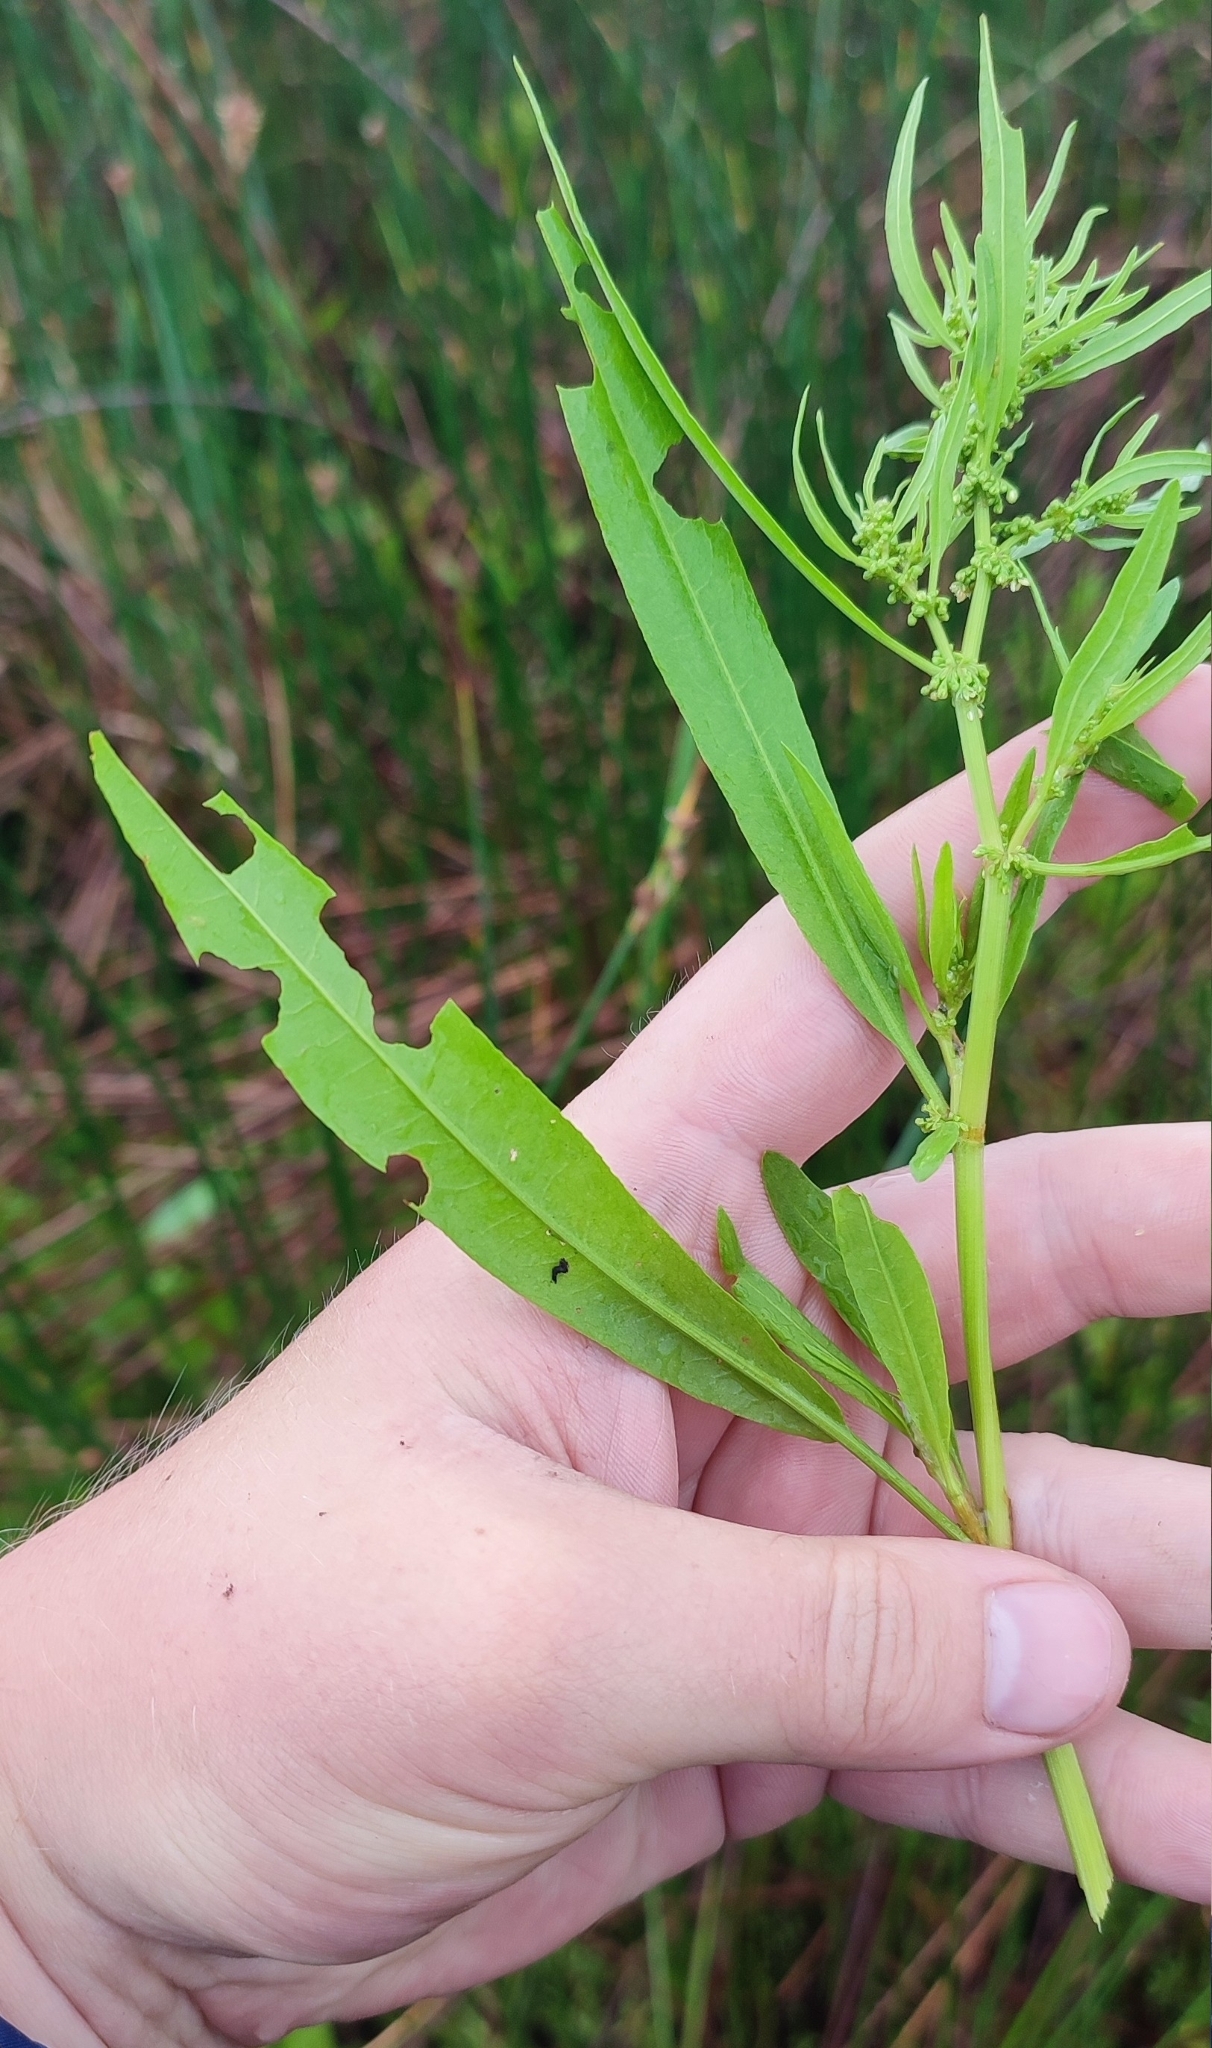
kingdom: Plantae
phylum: Tracheophyta
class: Magnoliopsida
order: Caryophyllales
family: Polygonaceae
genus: Rumex
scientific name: Rumex maritimus
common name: Golden dock
